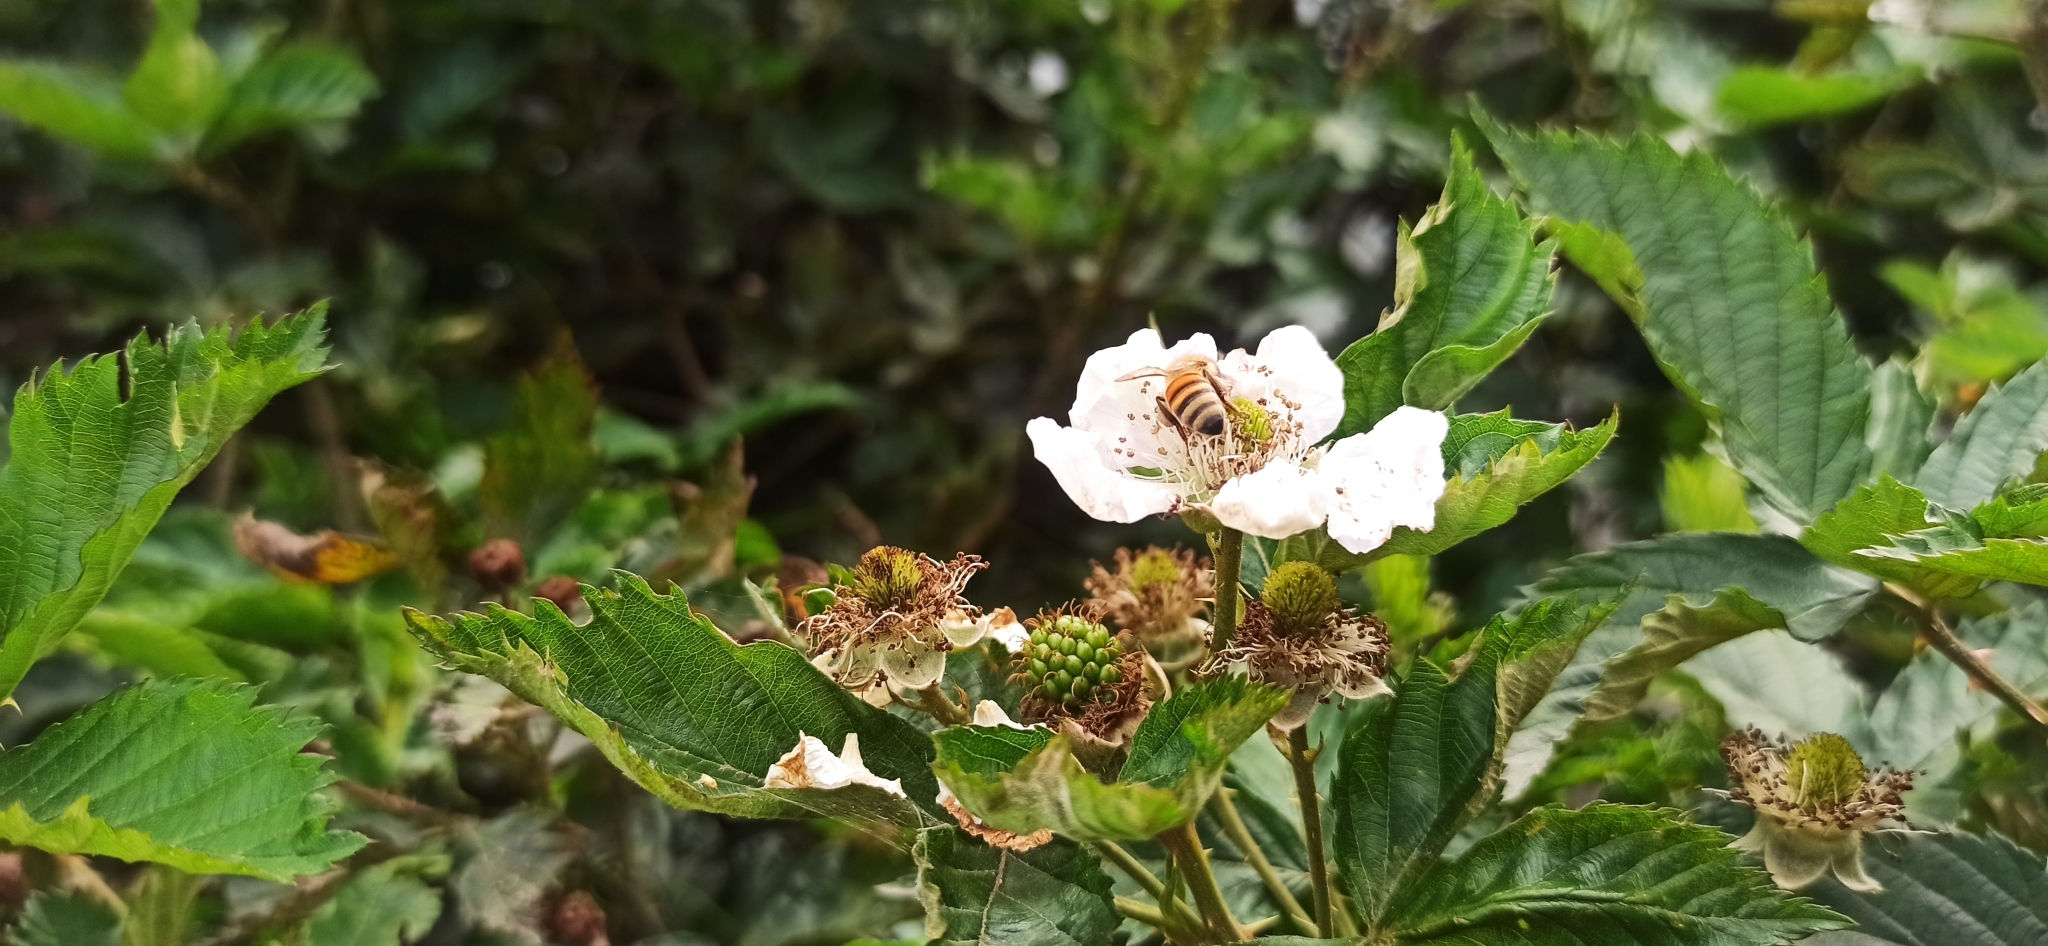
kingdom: Animalia
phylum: Arthropoda
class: Insecta
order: Hymenoptera
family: Apidae
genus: Apis
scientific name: Apis mellifera
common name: Honey bee
